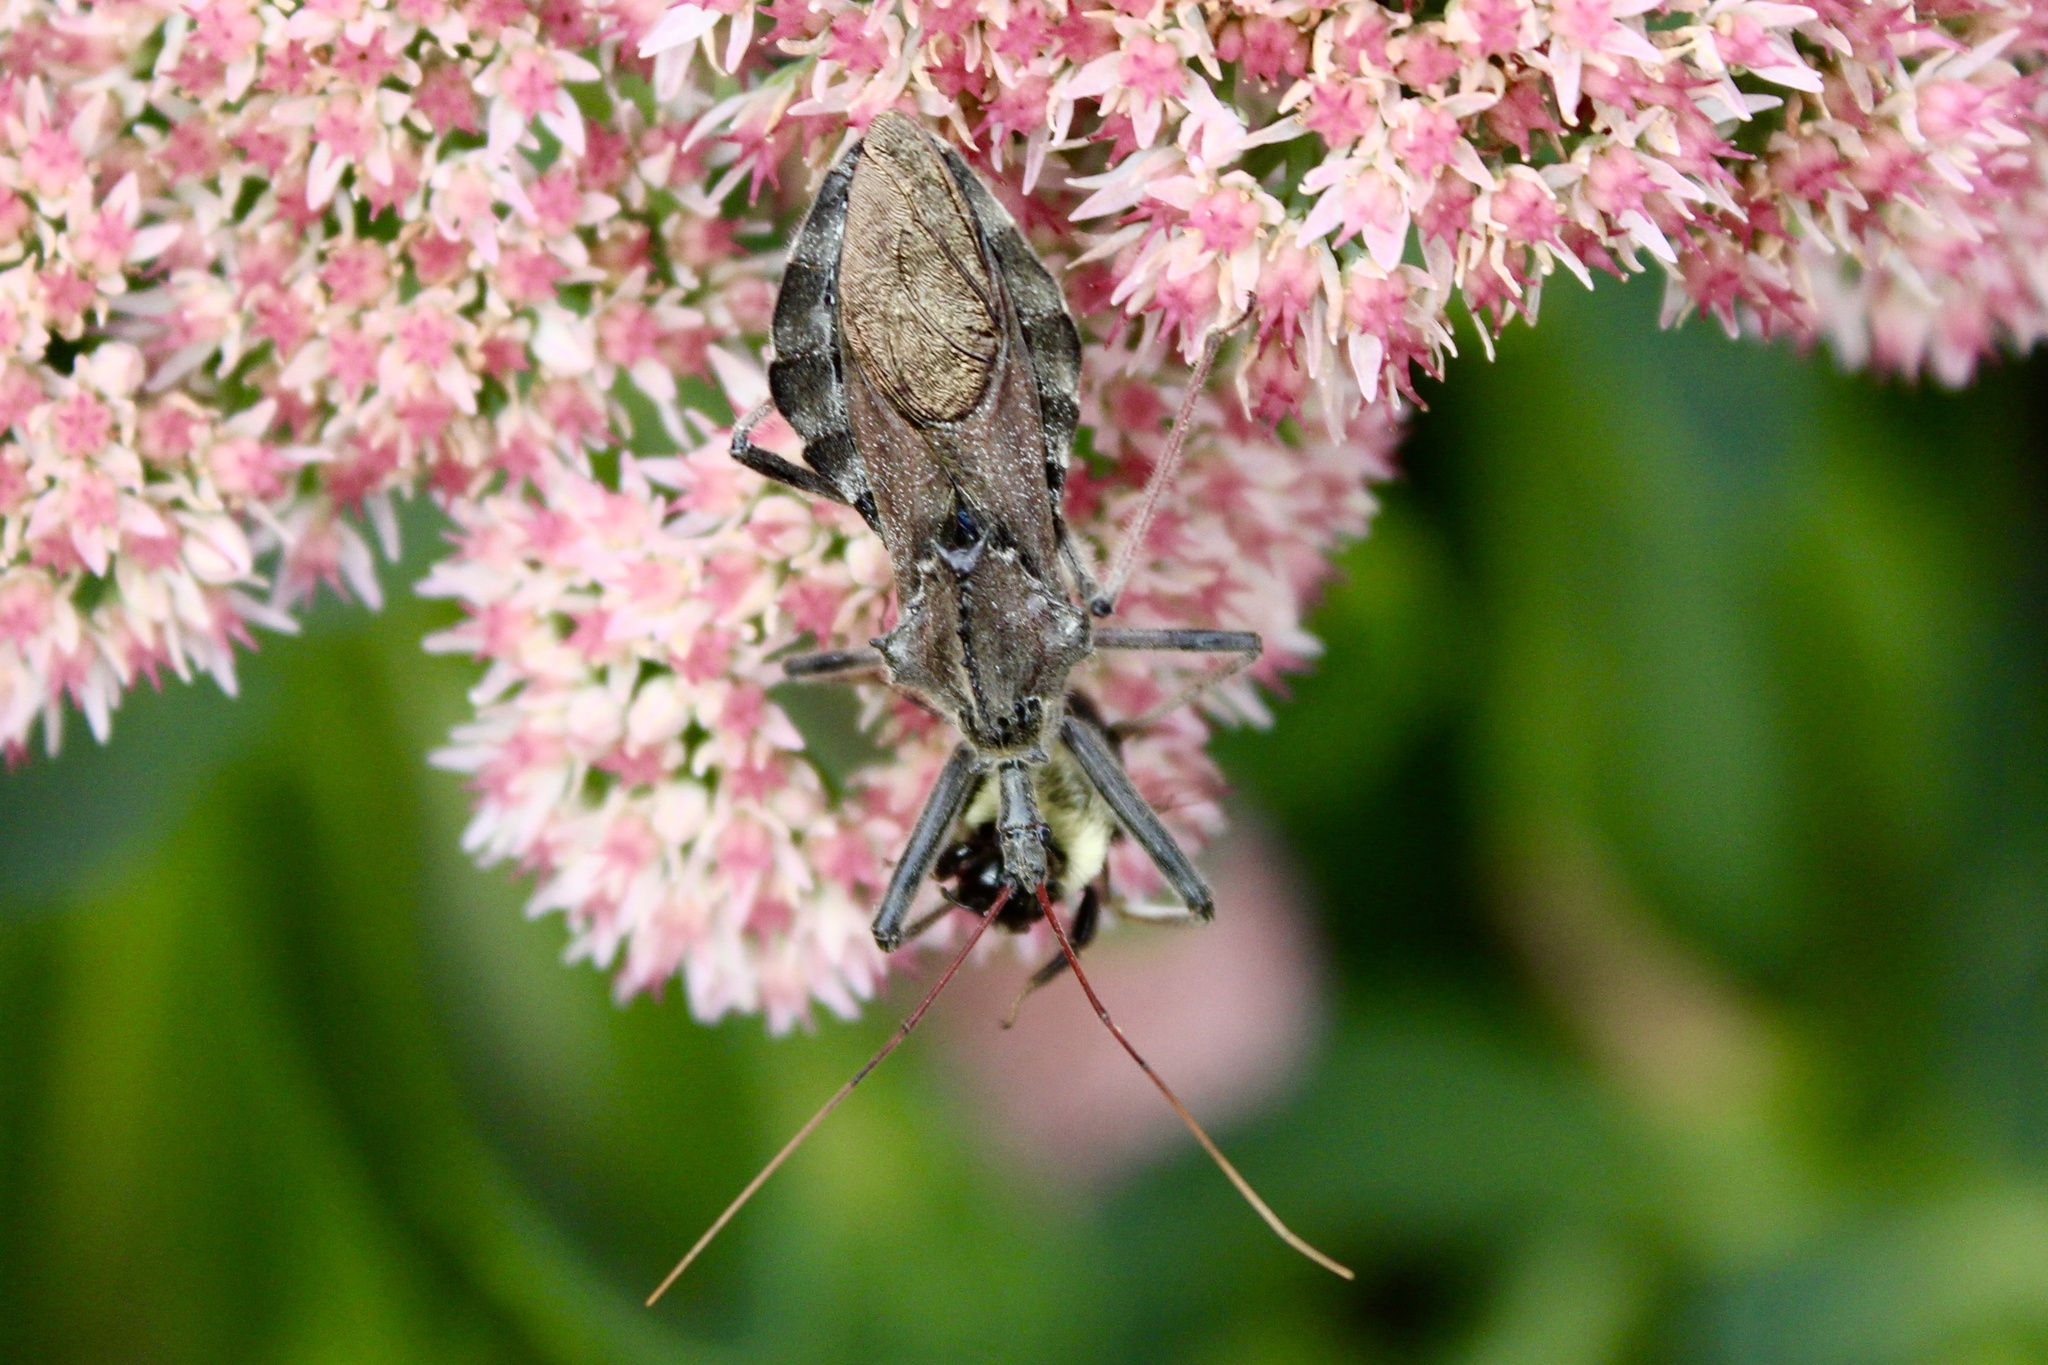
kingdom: Animalia
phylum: Arthropoda
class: Insecta
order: Hymenoptera
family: Apidae
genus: Bombus
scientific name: Bombus impatiens
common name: Common eastern bumble bee
